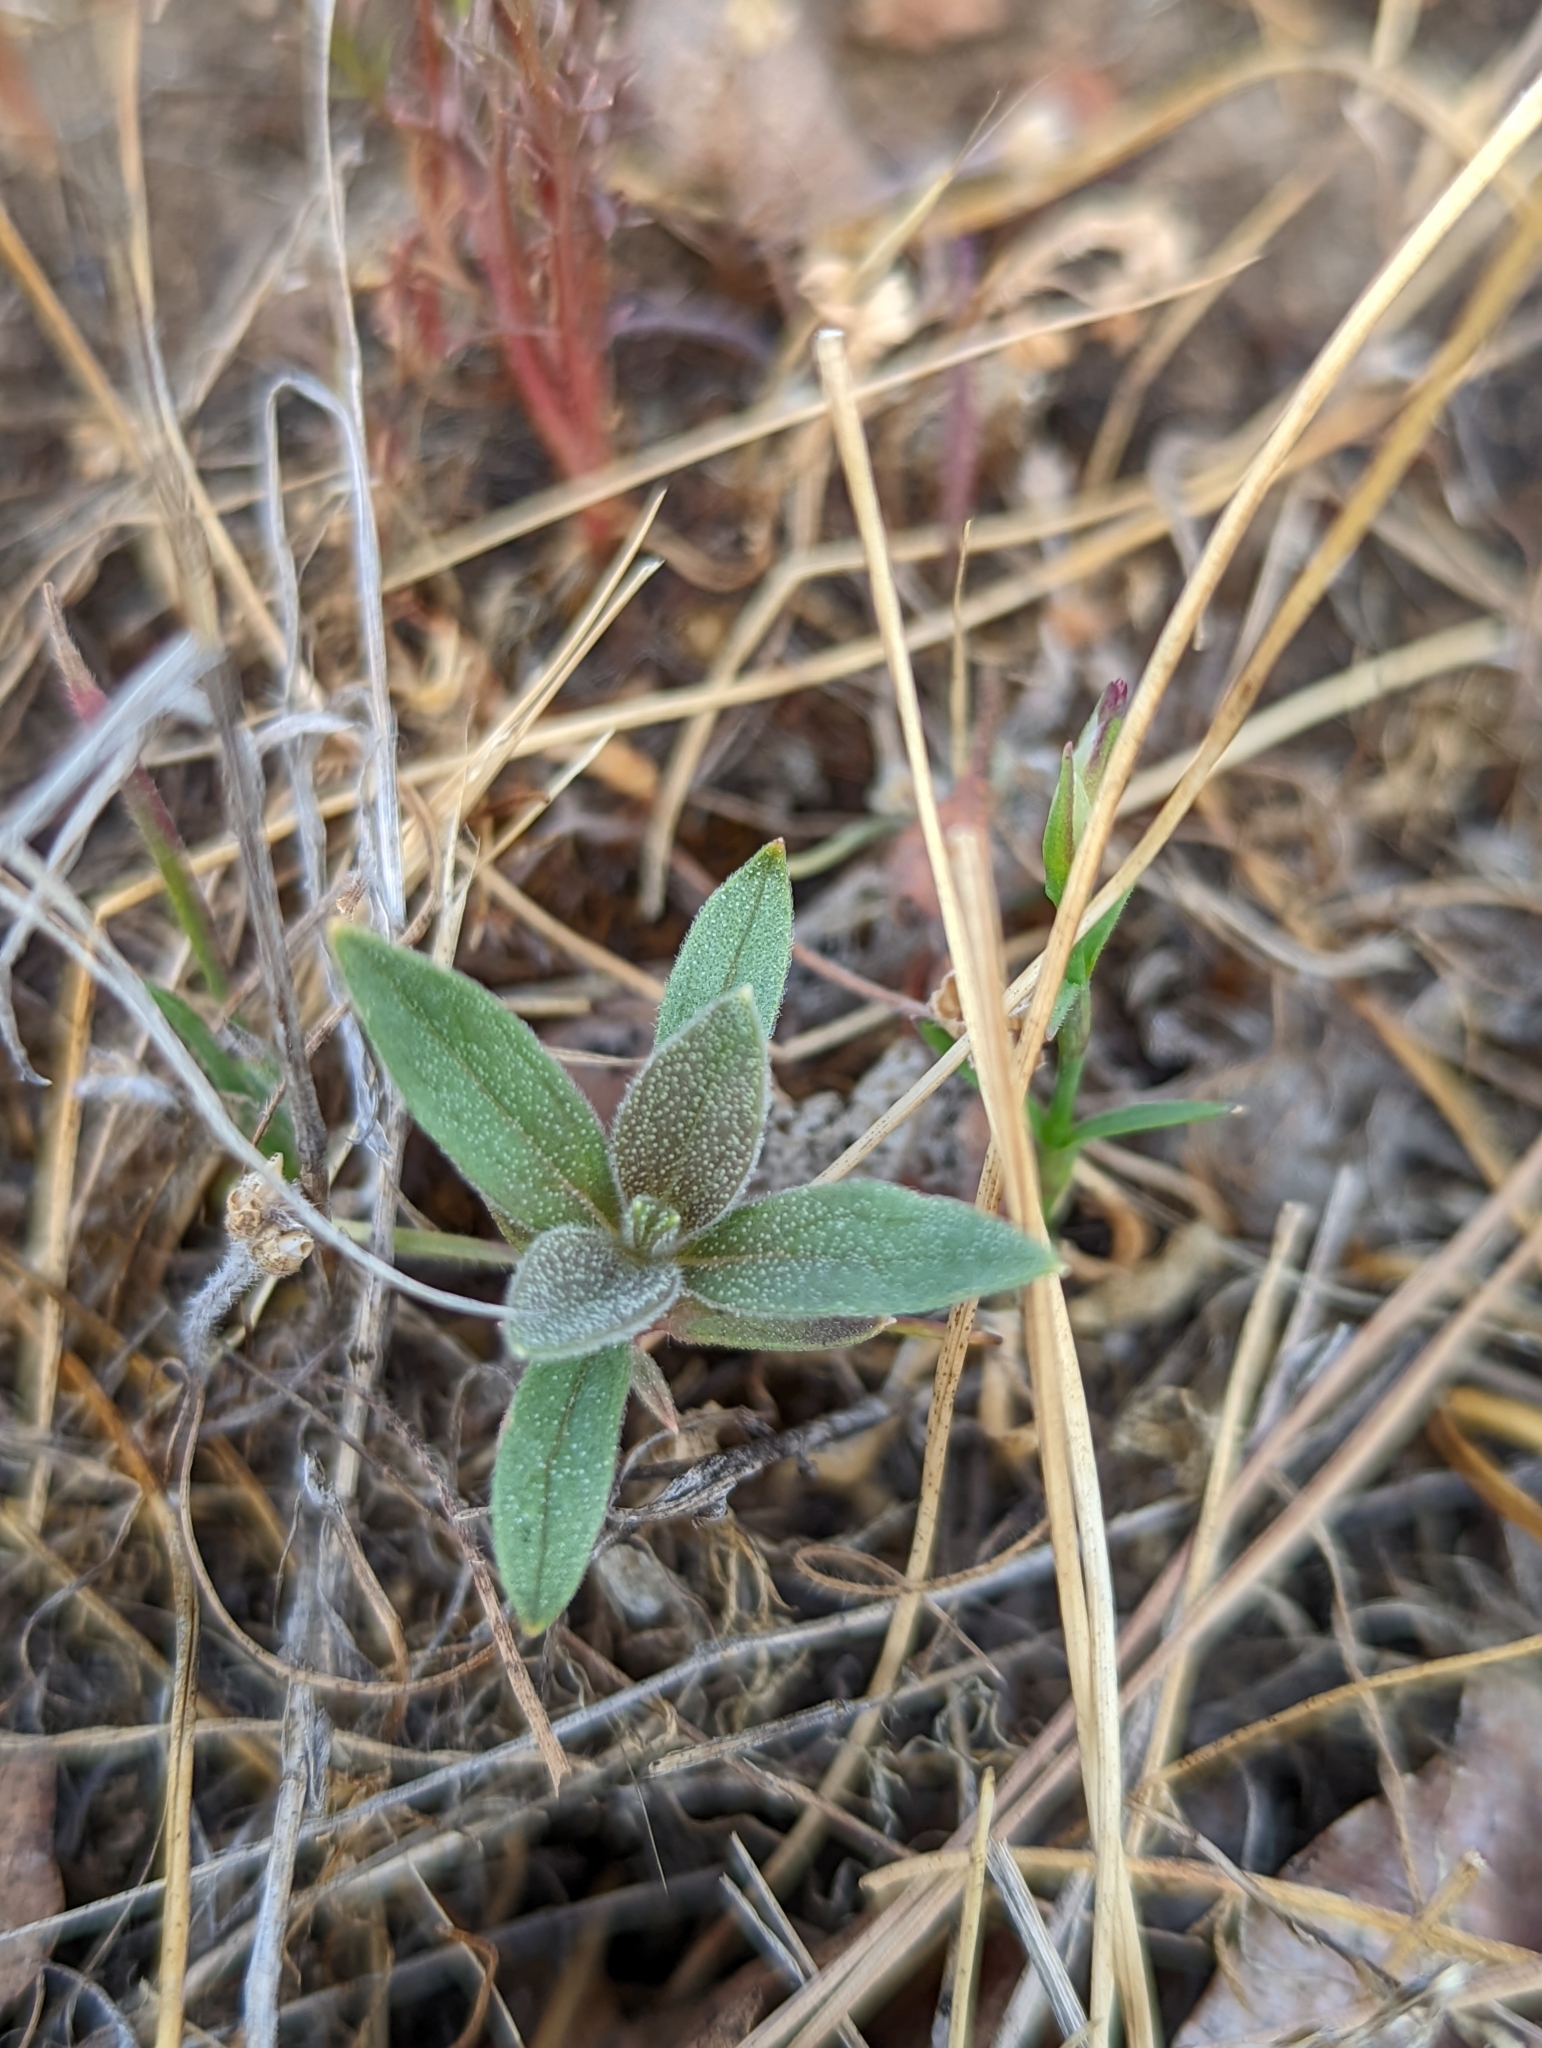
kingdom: Plantae
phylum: Tracheophyta
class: Magnoliopsida
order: Lamiales
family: Lamiaceae
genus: Trichostema
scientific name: Trichostema lanceolatum
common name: Vinegar-weed
